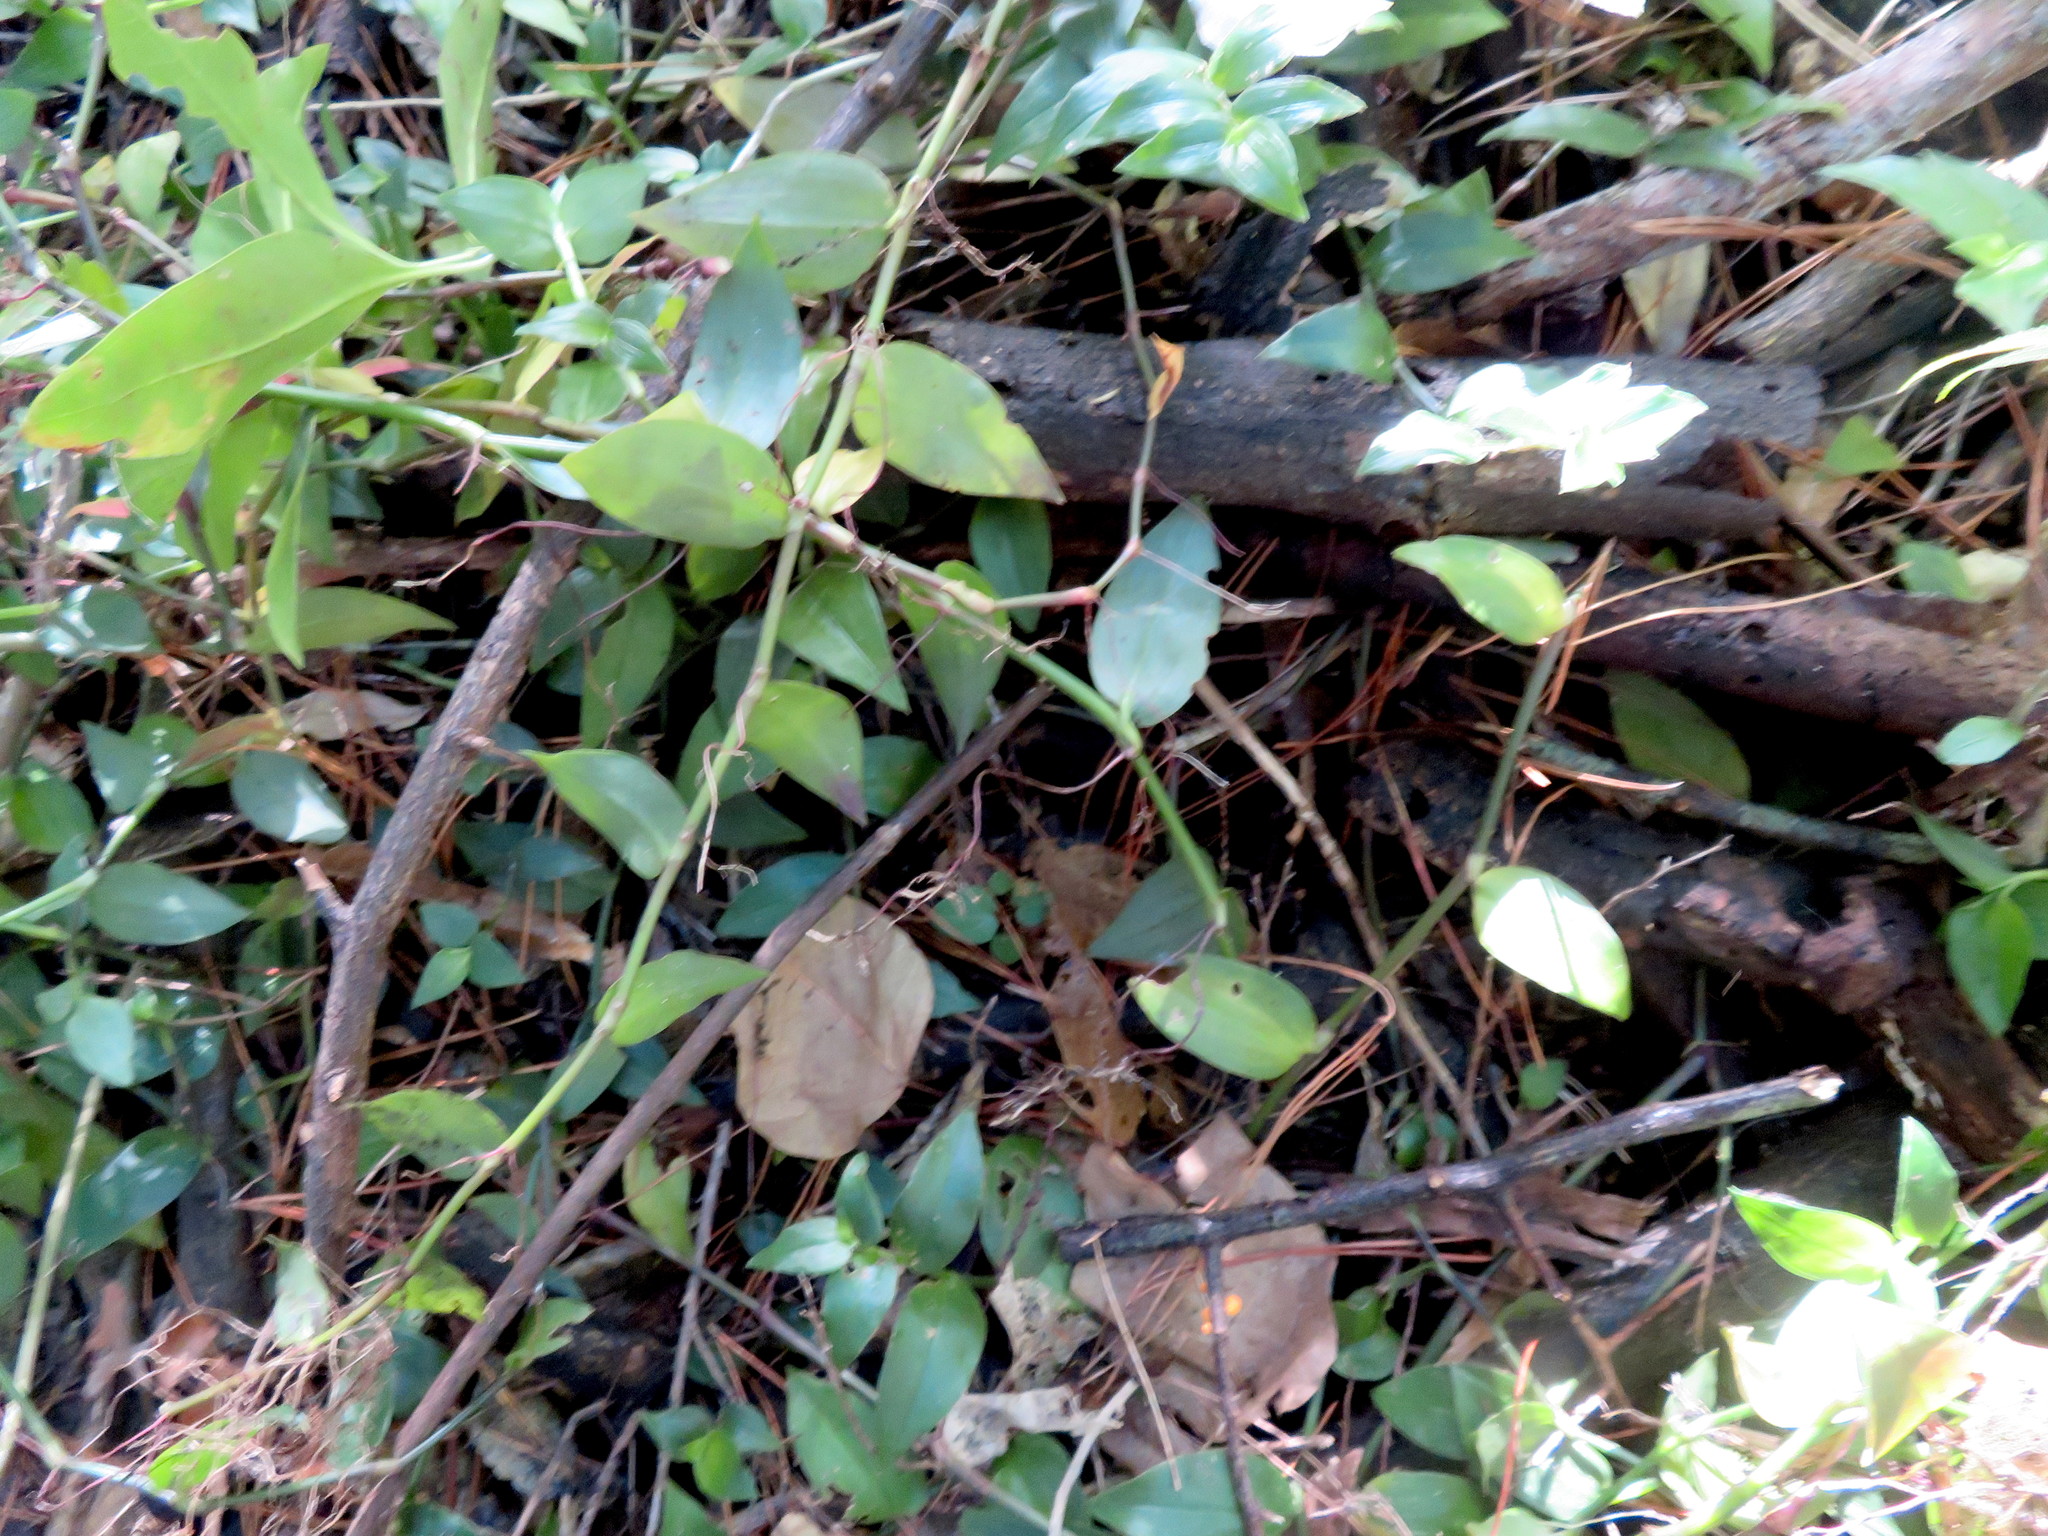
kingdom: Plantae
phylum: Tracheophyta
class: Magnoliopsida
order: Piperales
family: Piperaceae
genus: Macropiper
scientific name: Macropiper excelsum
